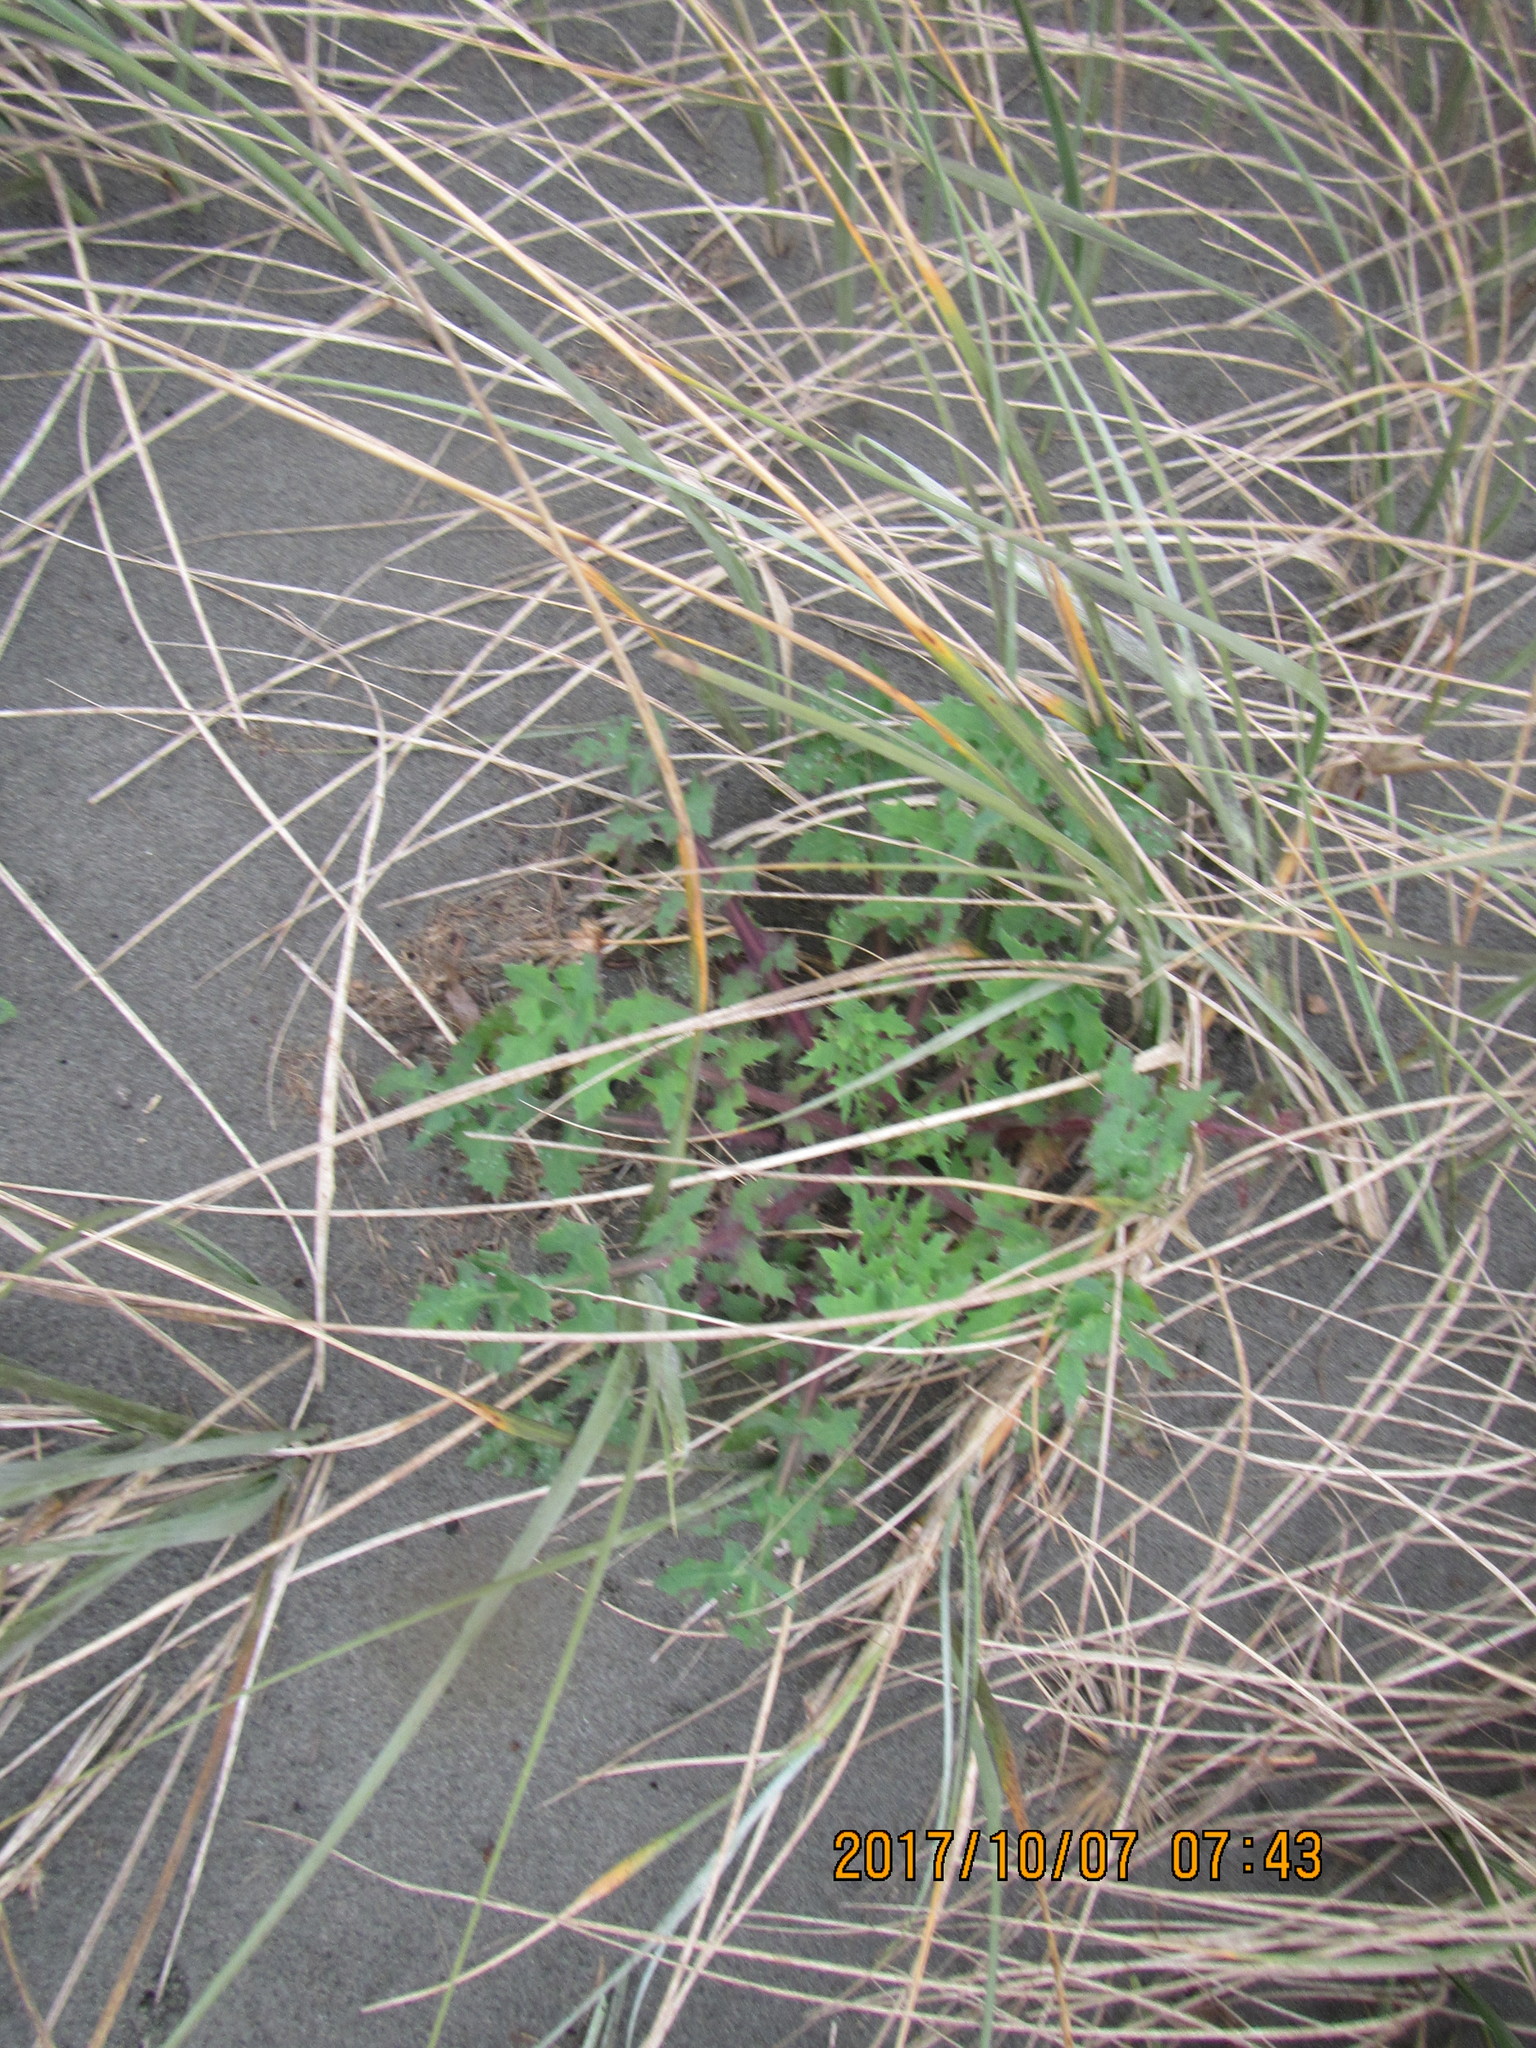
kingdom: Plantae
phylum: Tracheophyta
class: Magnoliopsida
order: Asterales
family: Asteraceae
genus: Sonchus
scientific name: Sonchus oleraceus
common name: Common sowthistle
